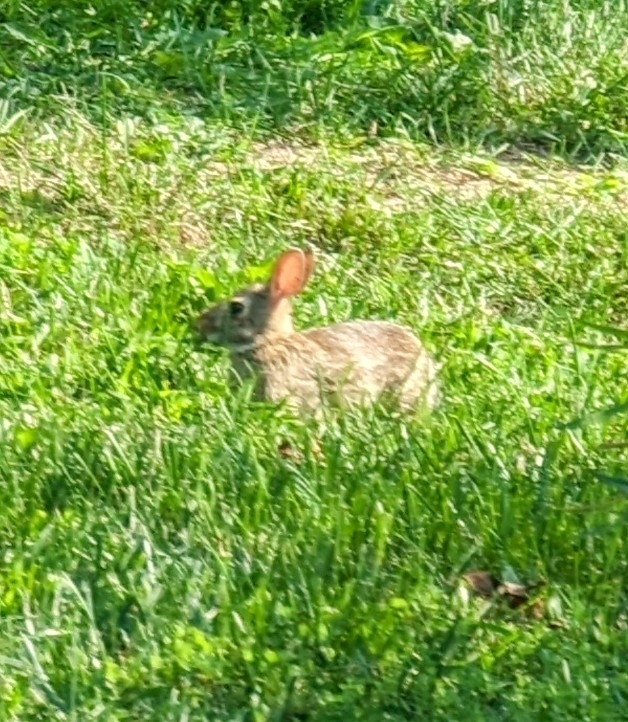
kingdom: Animalia
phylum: Chordata
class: Mammalia
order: Lagomorpha
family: Leporidae
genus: Sylvilagus
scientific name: Sylvilagus floridanus
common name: Eastern cottontail
